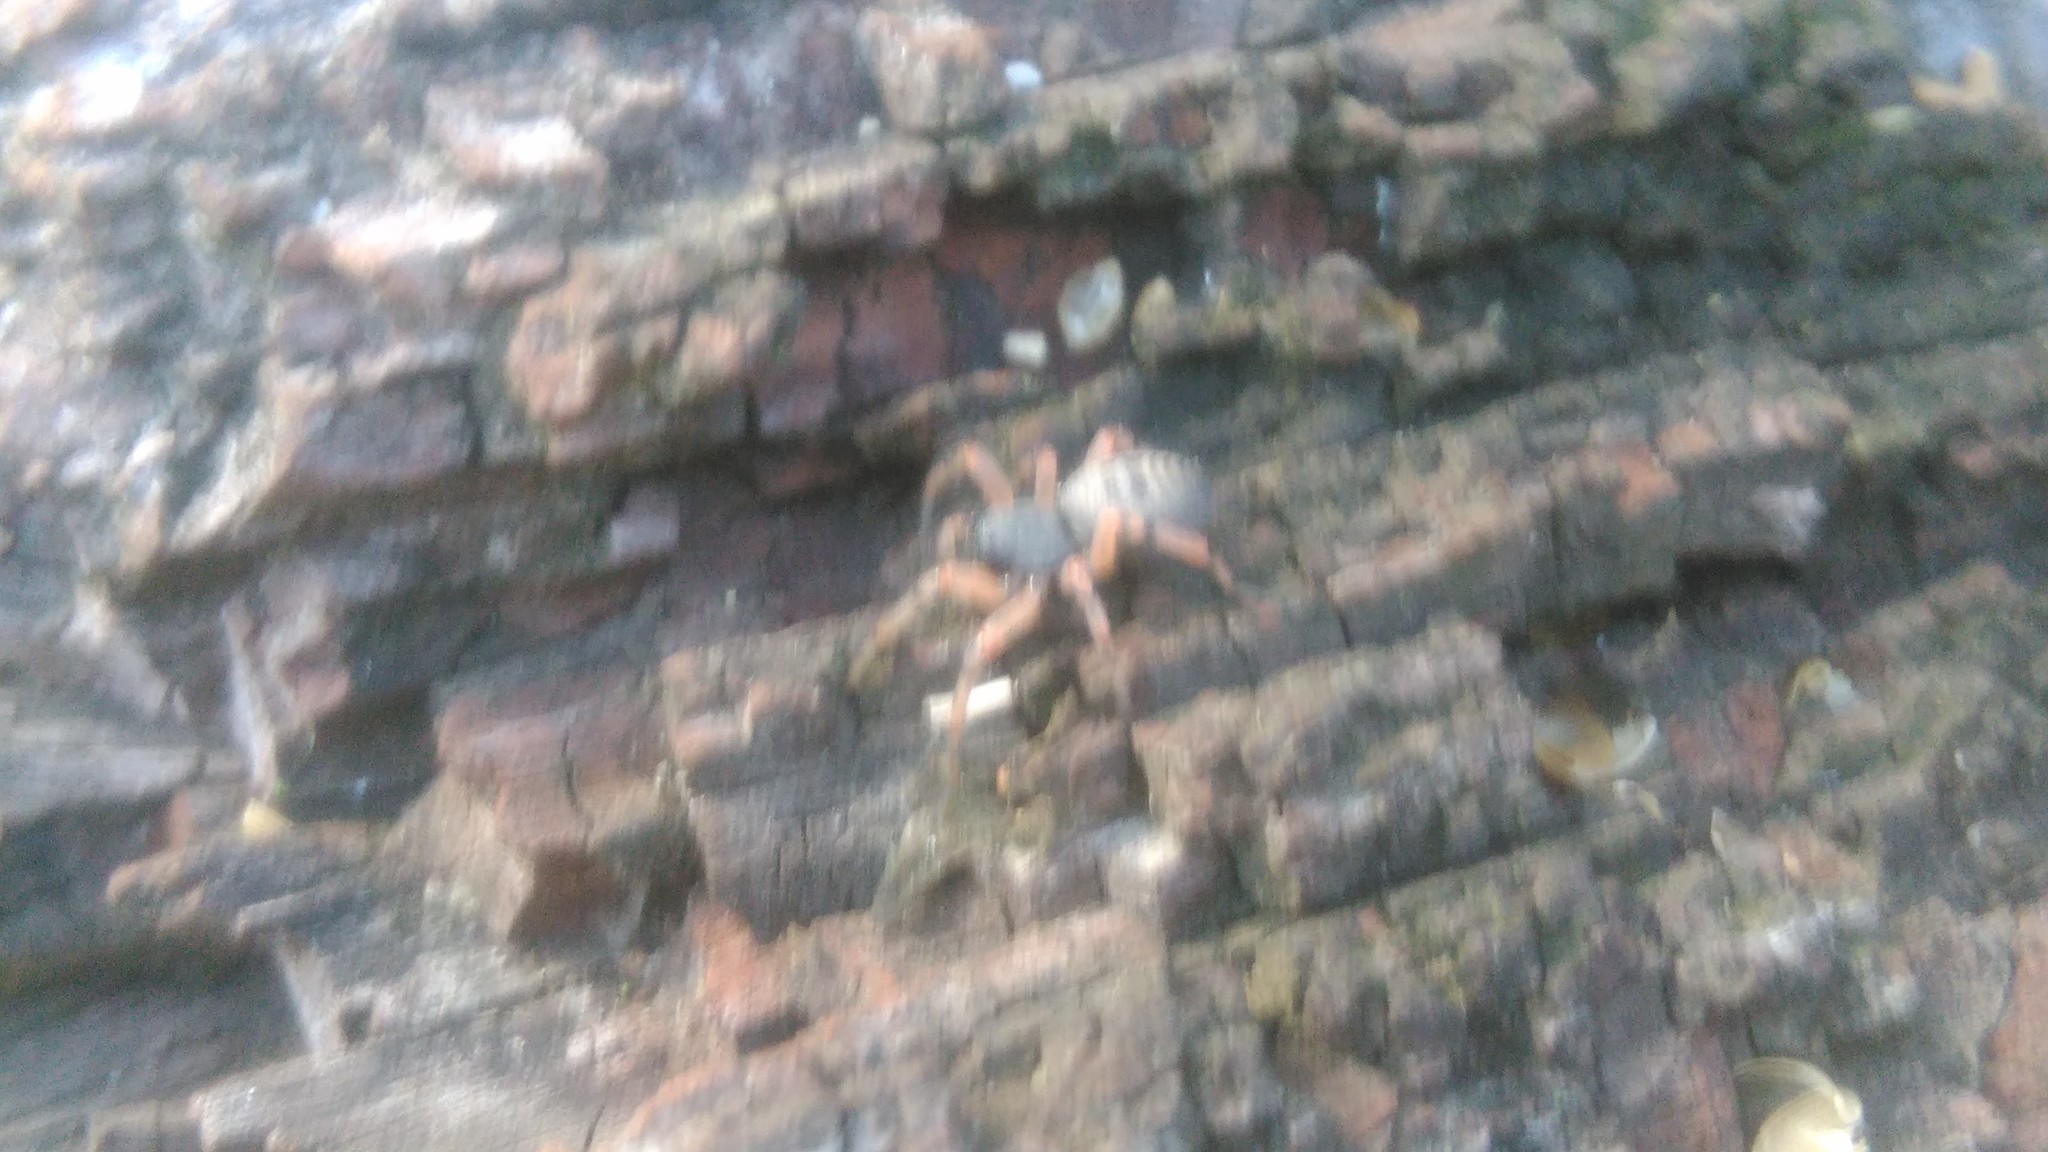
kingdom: Animalia
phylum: Arthropoda
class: Arachnida
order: Araneae
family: Trachelidae
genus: Trachelopachys
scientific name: Trachelopachys
